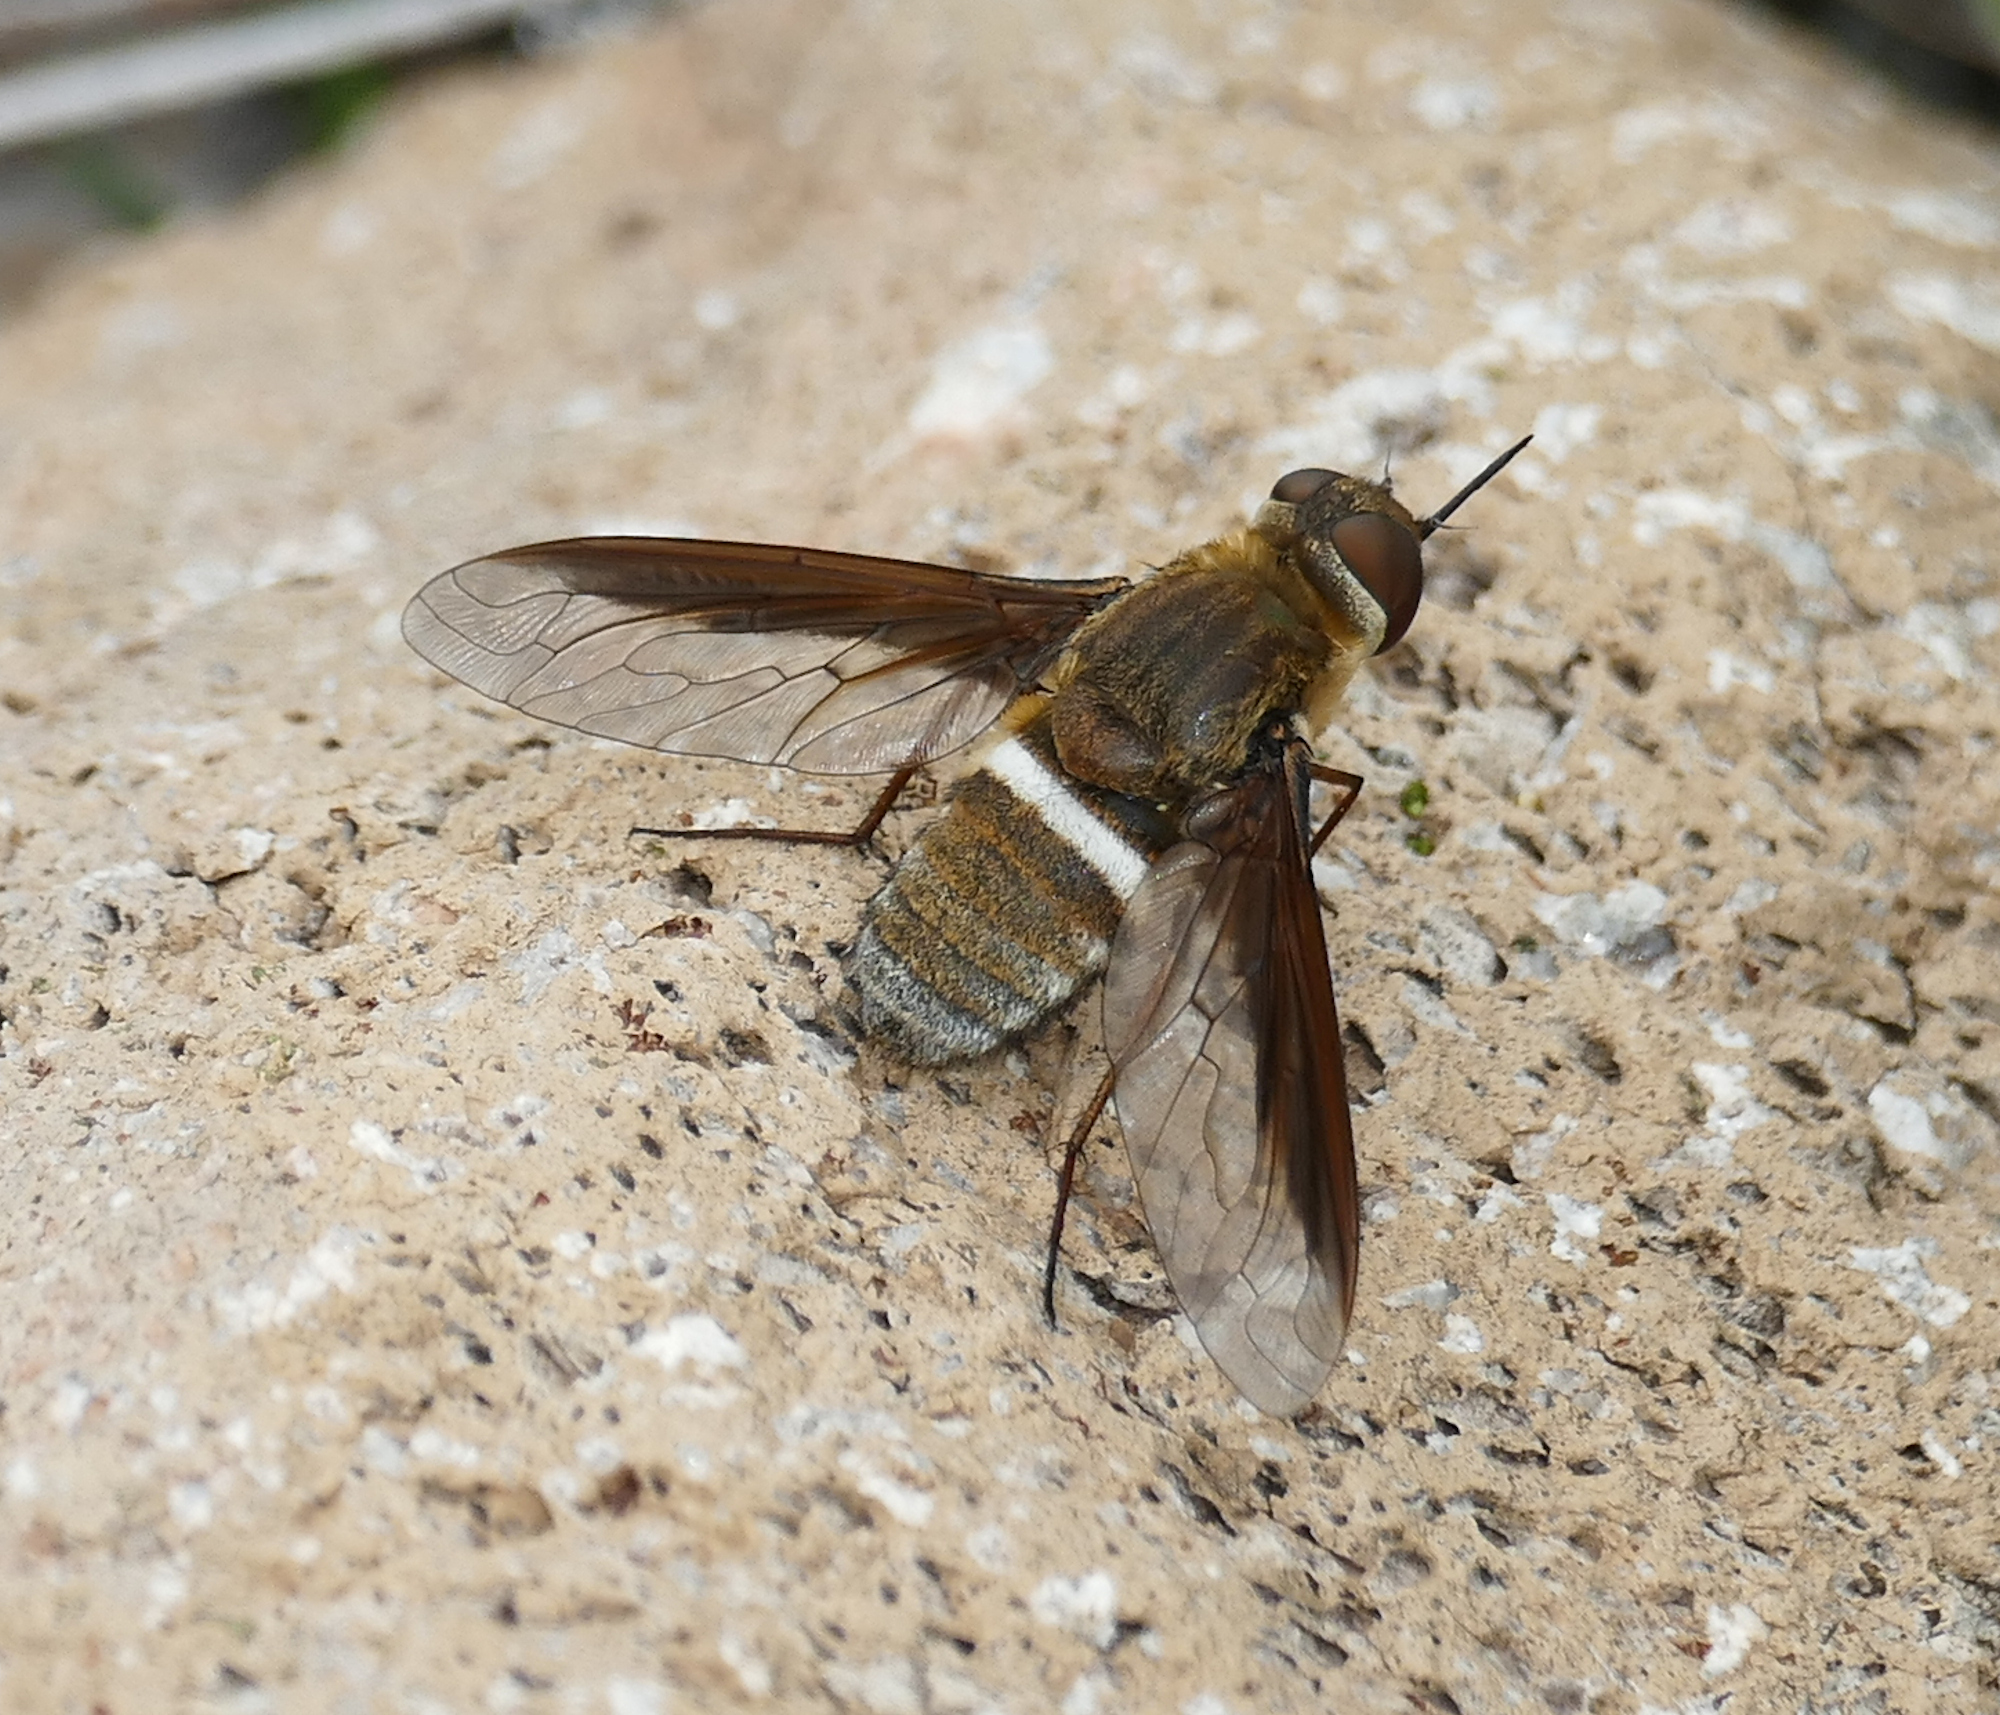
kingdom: Animalia
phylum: Arthropoda
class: Insecta
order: Diptera
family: Bombyliidae
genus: Exoprosopa
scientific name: Exoprosopa rostrifera
